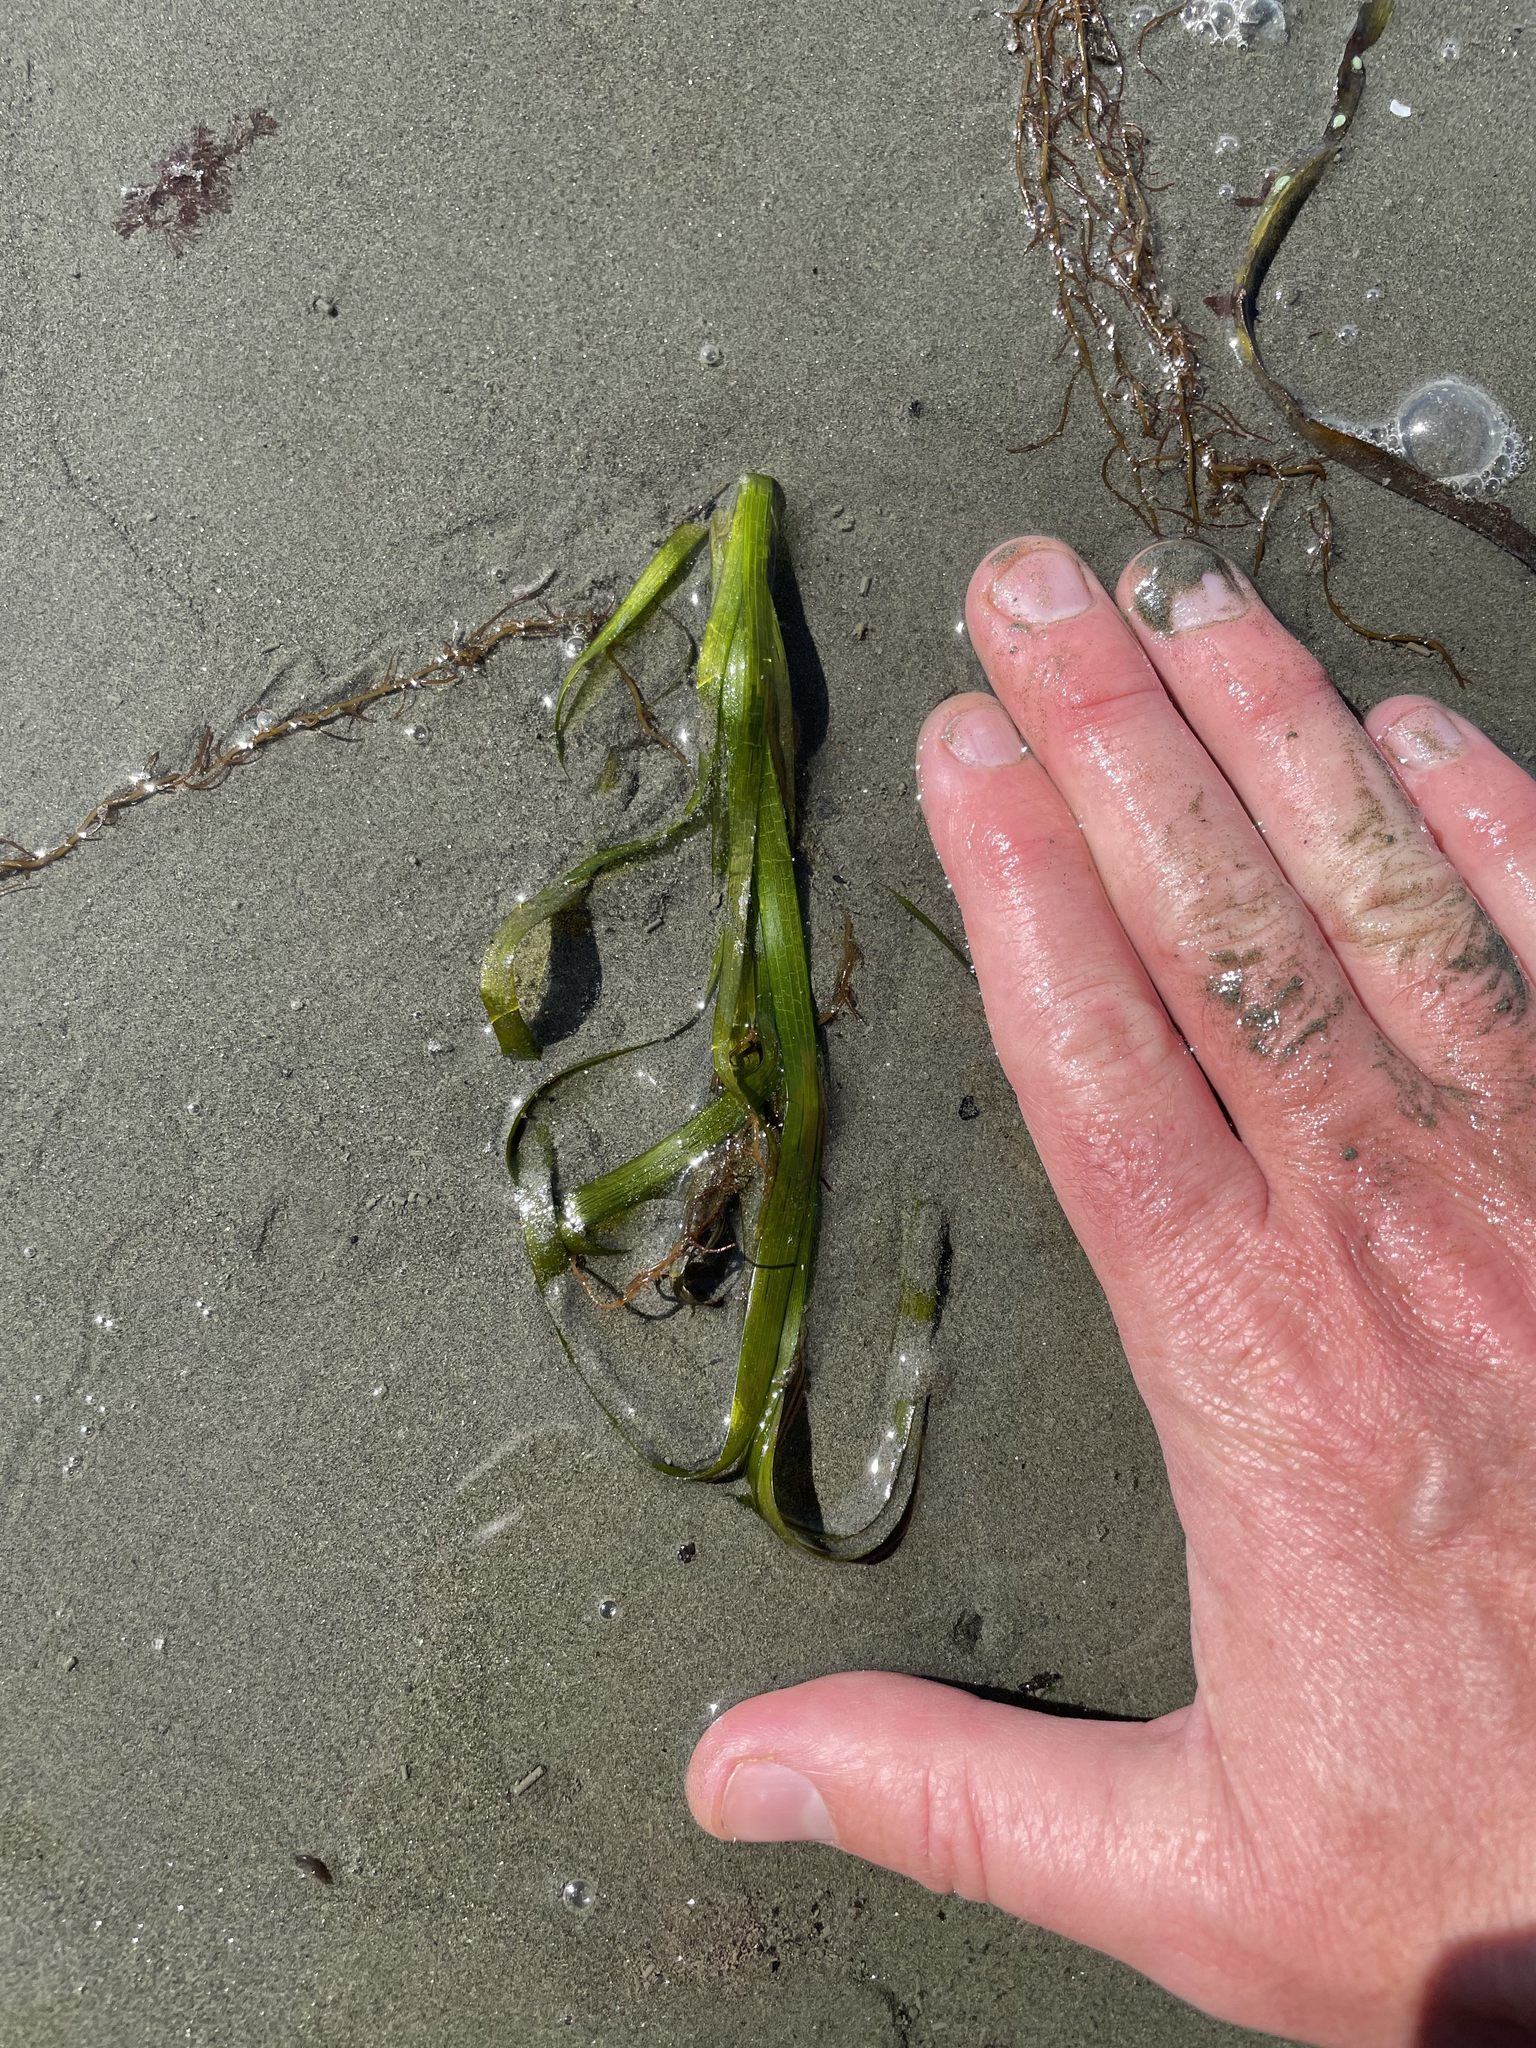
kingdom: Plantae
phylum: Tracheophyta
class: Liliopsida
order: Alismatales
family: Zosteraceae
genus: Zostera
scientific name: Zostera marina
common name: Eelgrass
